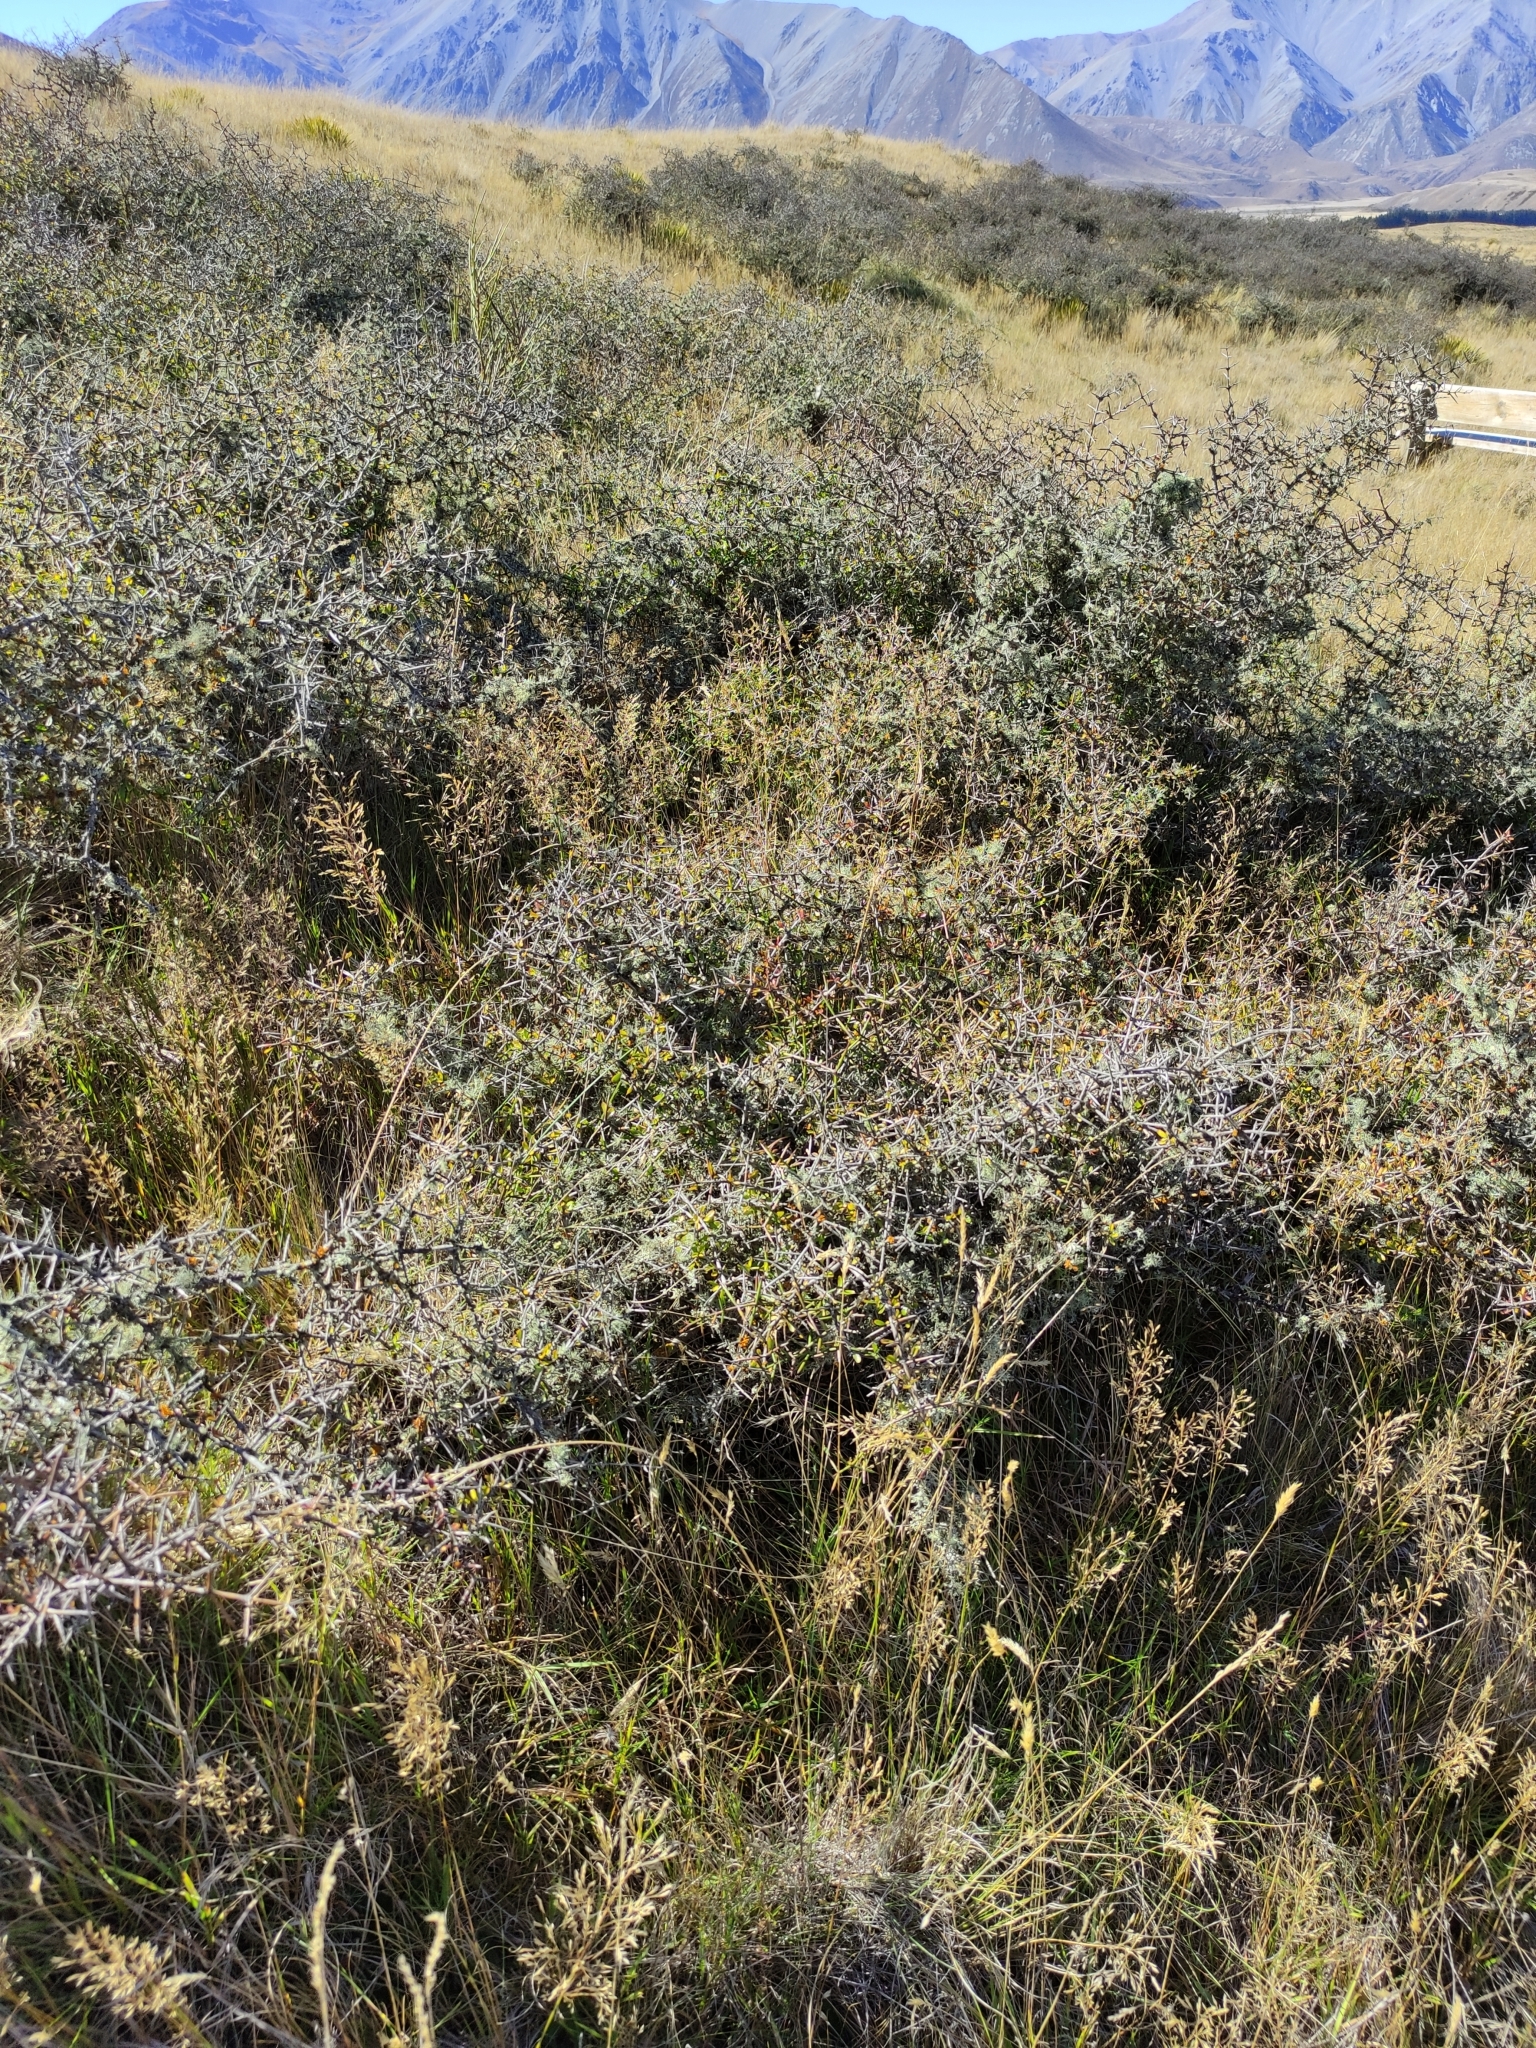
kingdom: Plantae
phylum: Tracheophyta
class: Magnoliopsida
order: Rosales
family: Rhamnaceae
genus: Discaria
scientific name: Discaria toumatou
